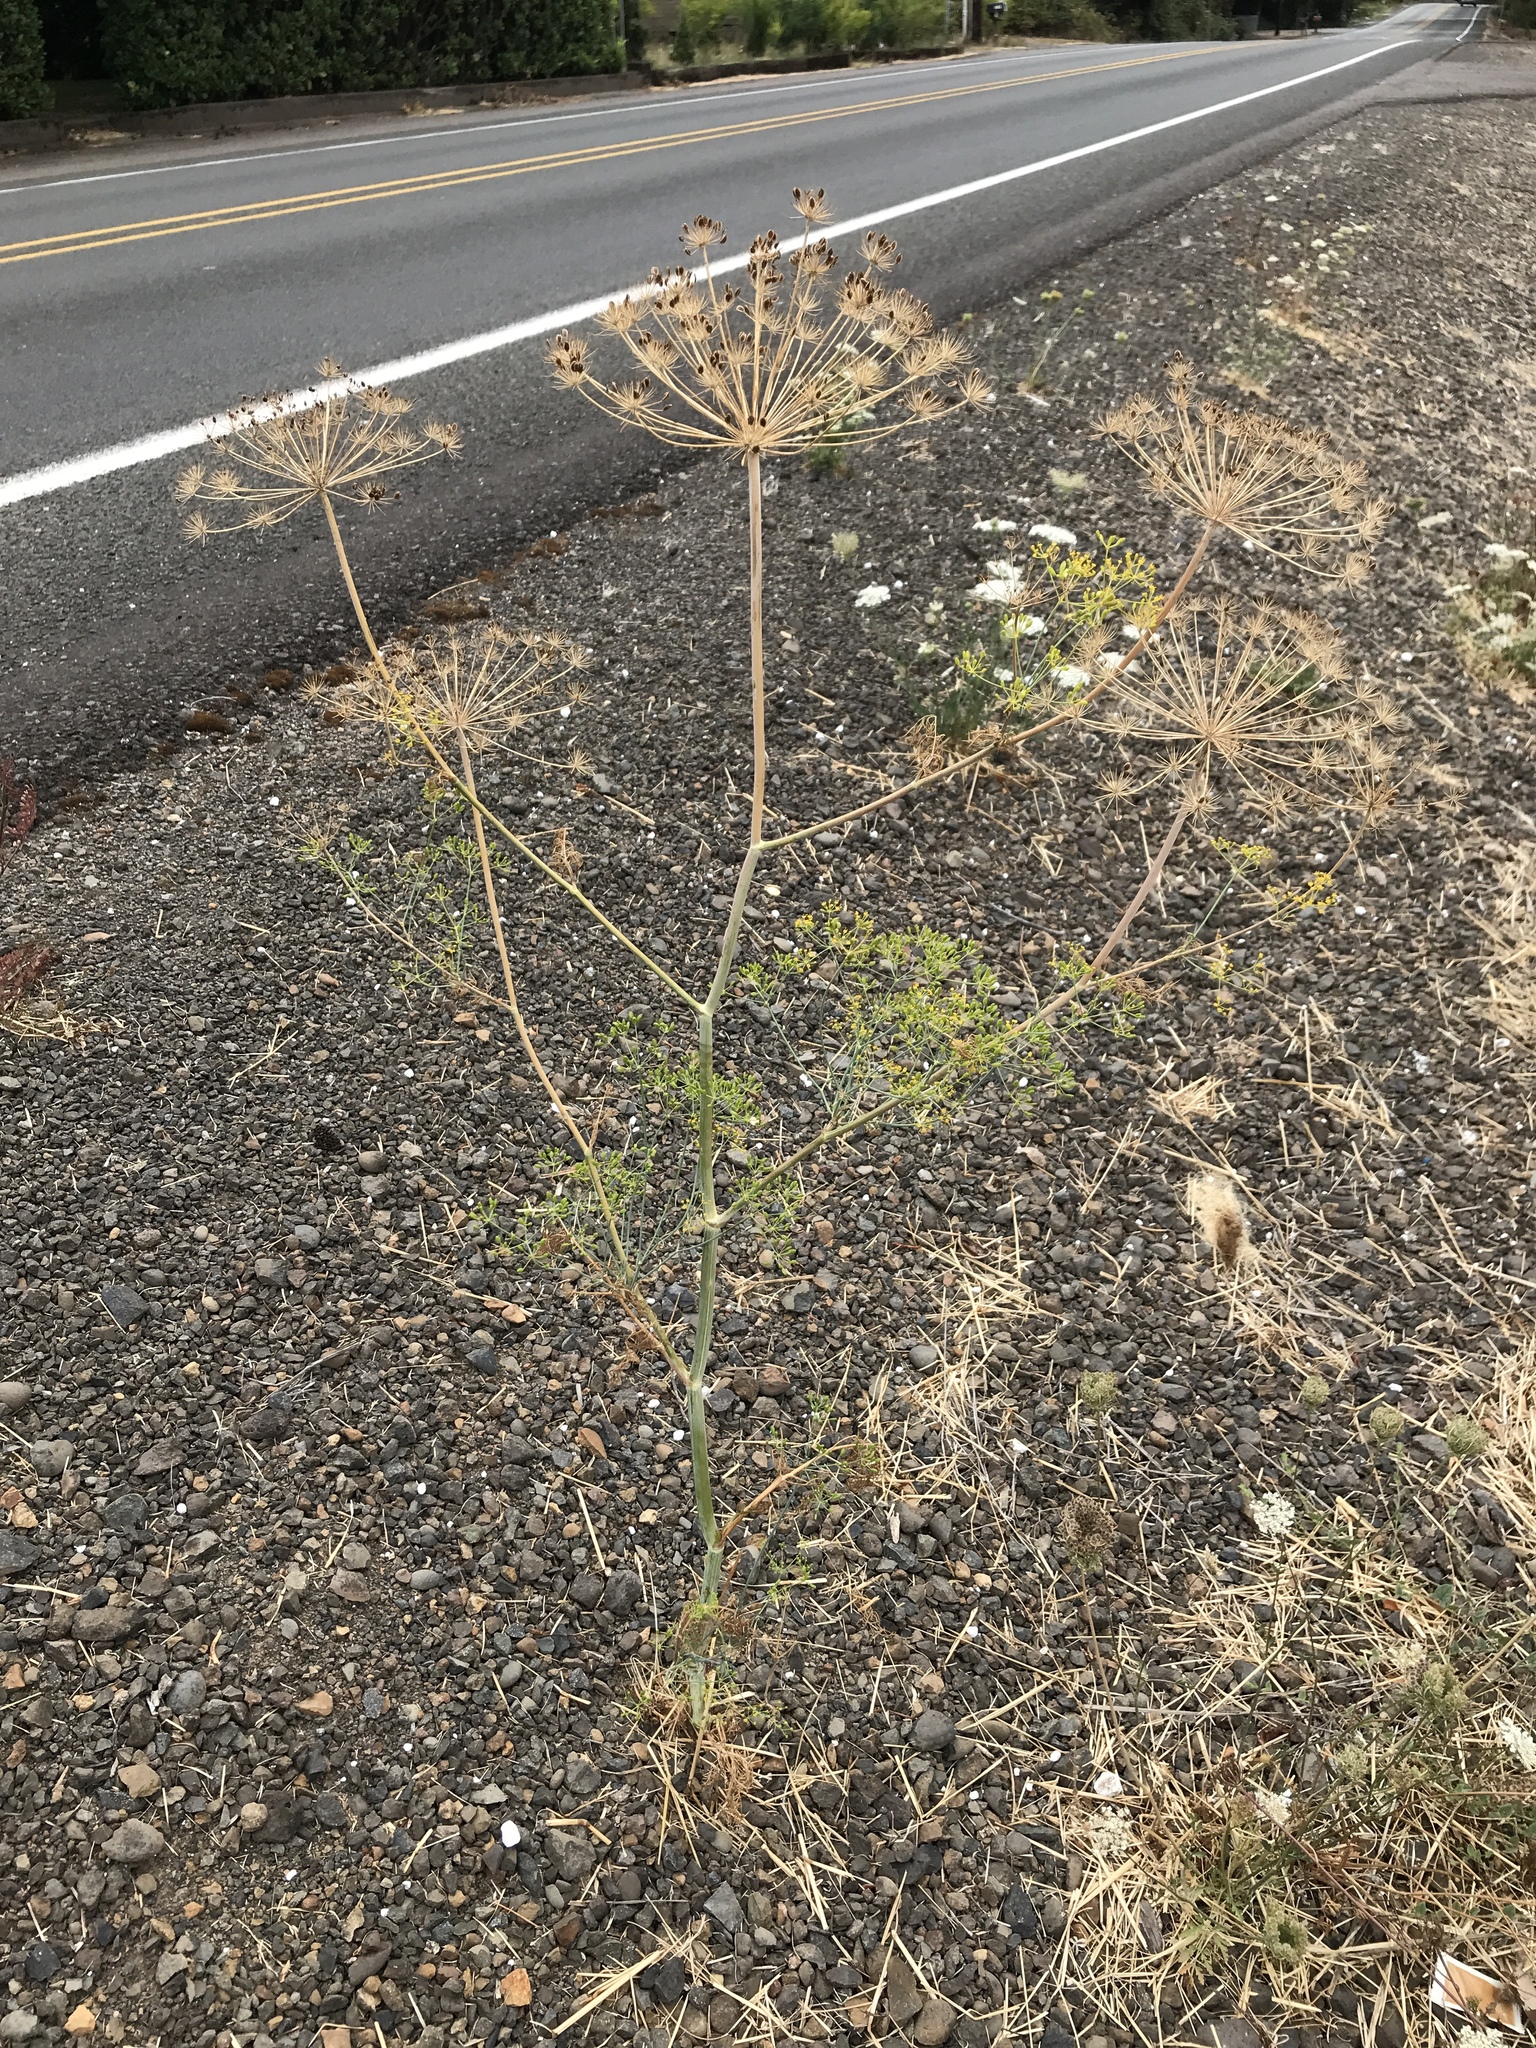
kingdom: Plantae
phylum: Tracheophyta
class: Magnoliopsida
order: Apiales
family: Apiaceae
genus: Anethum
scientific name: Anethum graveolens
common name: Dill
